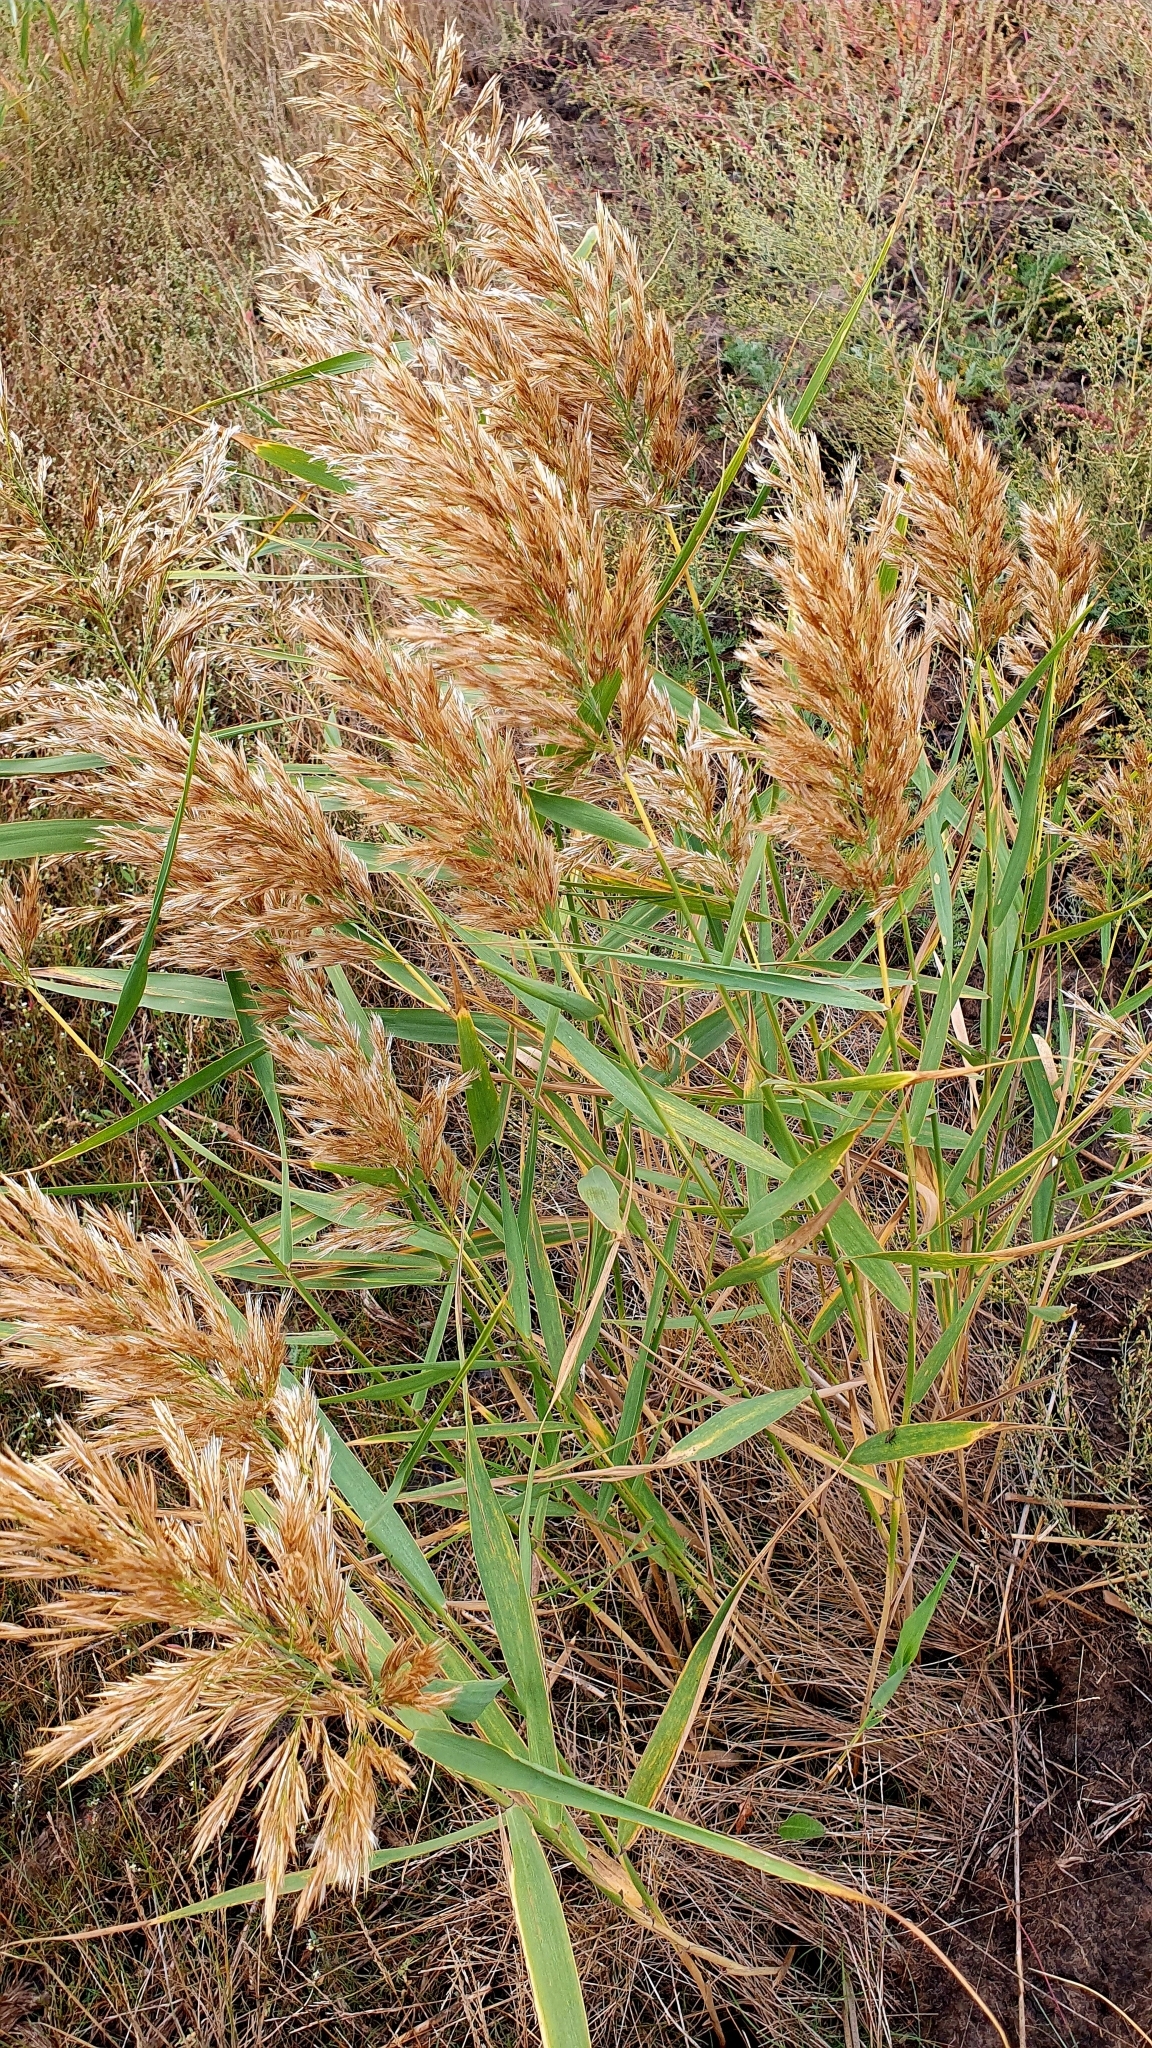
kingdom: Plantae
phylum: Tracheophyta
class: Liliopsida
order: Poales
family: Poaceae
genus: Phragmites
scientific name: Phragmites australis
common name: Common reed
